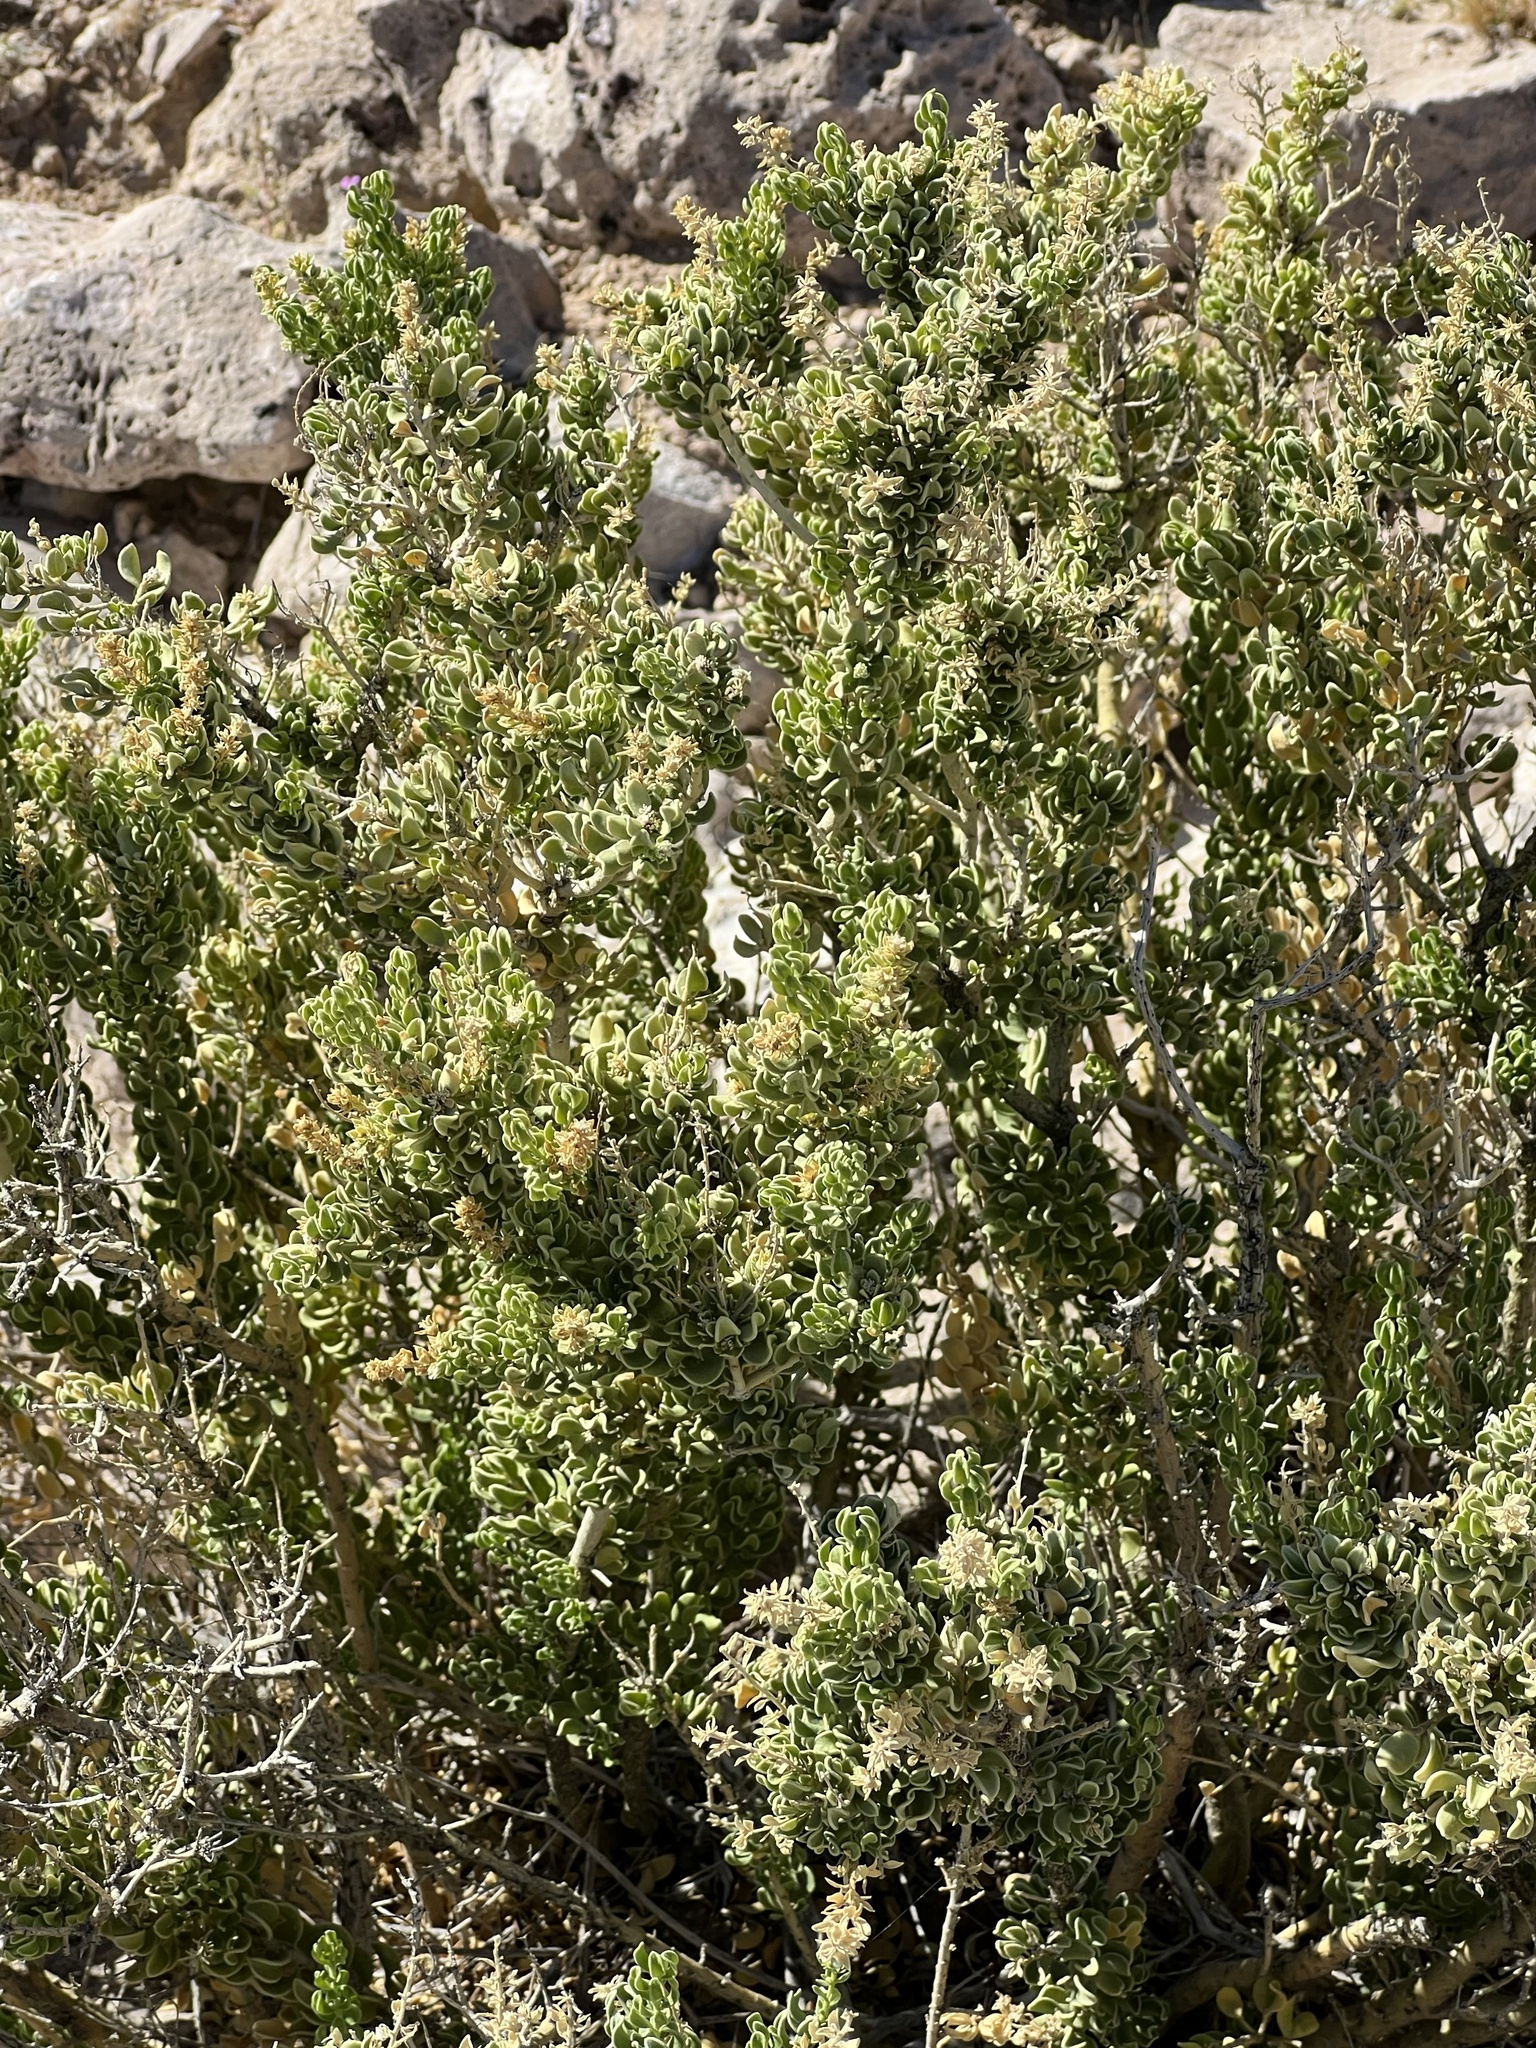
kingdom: Plantae
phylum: Tracheophyta
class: Magnoliopsida
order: Celastrales
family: Celastraceae
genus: Mortonia
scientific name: Mortonia utahensis
